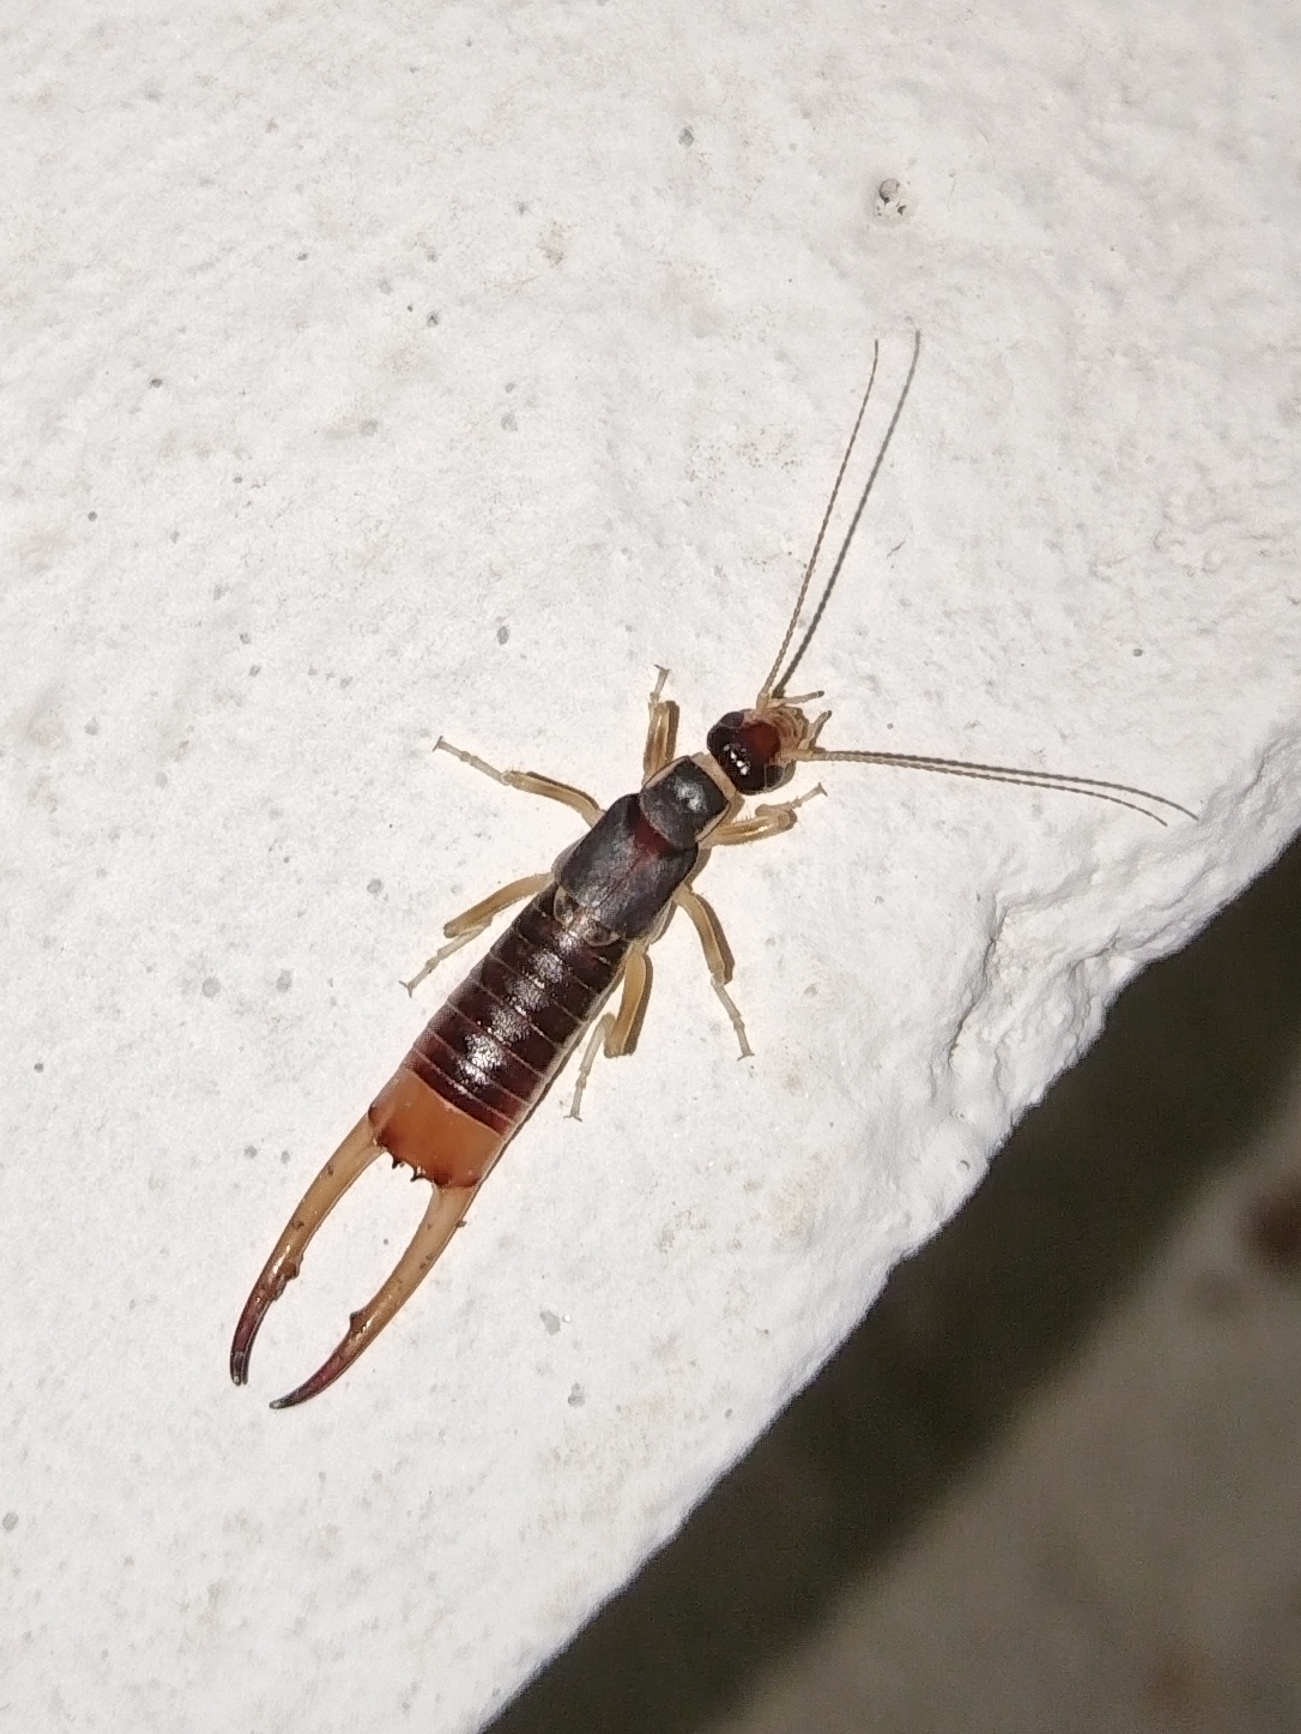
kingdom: Animalia
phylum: Arthropoda
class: Insecta
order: Dermaptera
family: Labiduridae
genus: Labidura
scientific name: Labidura riparia
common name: Striped earwig
